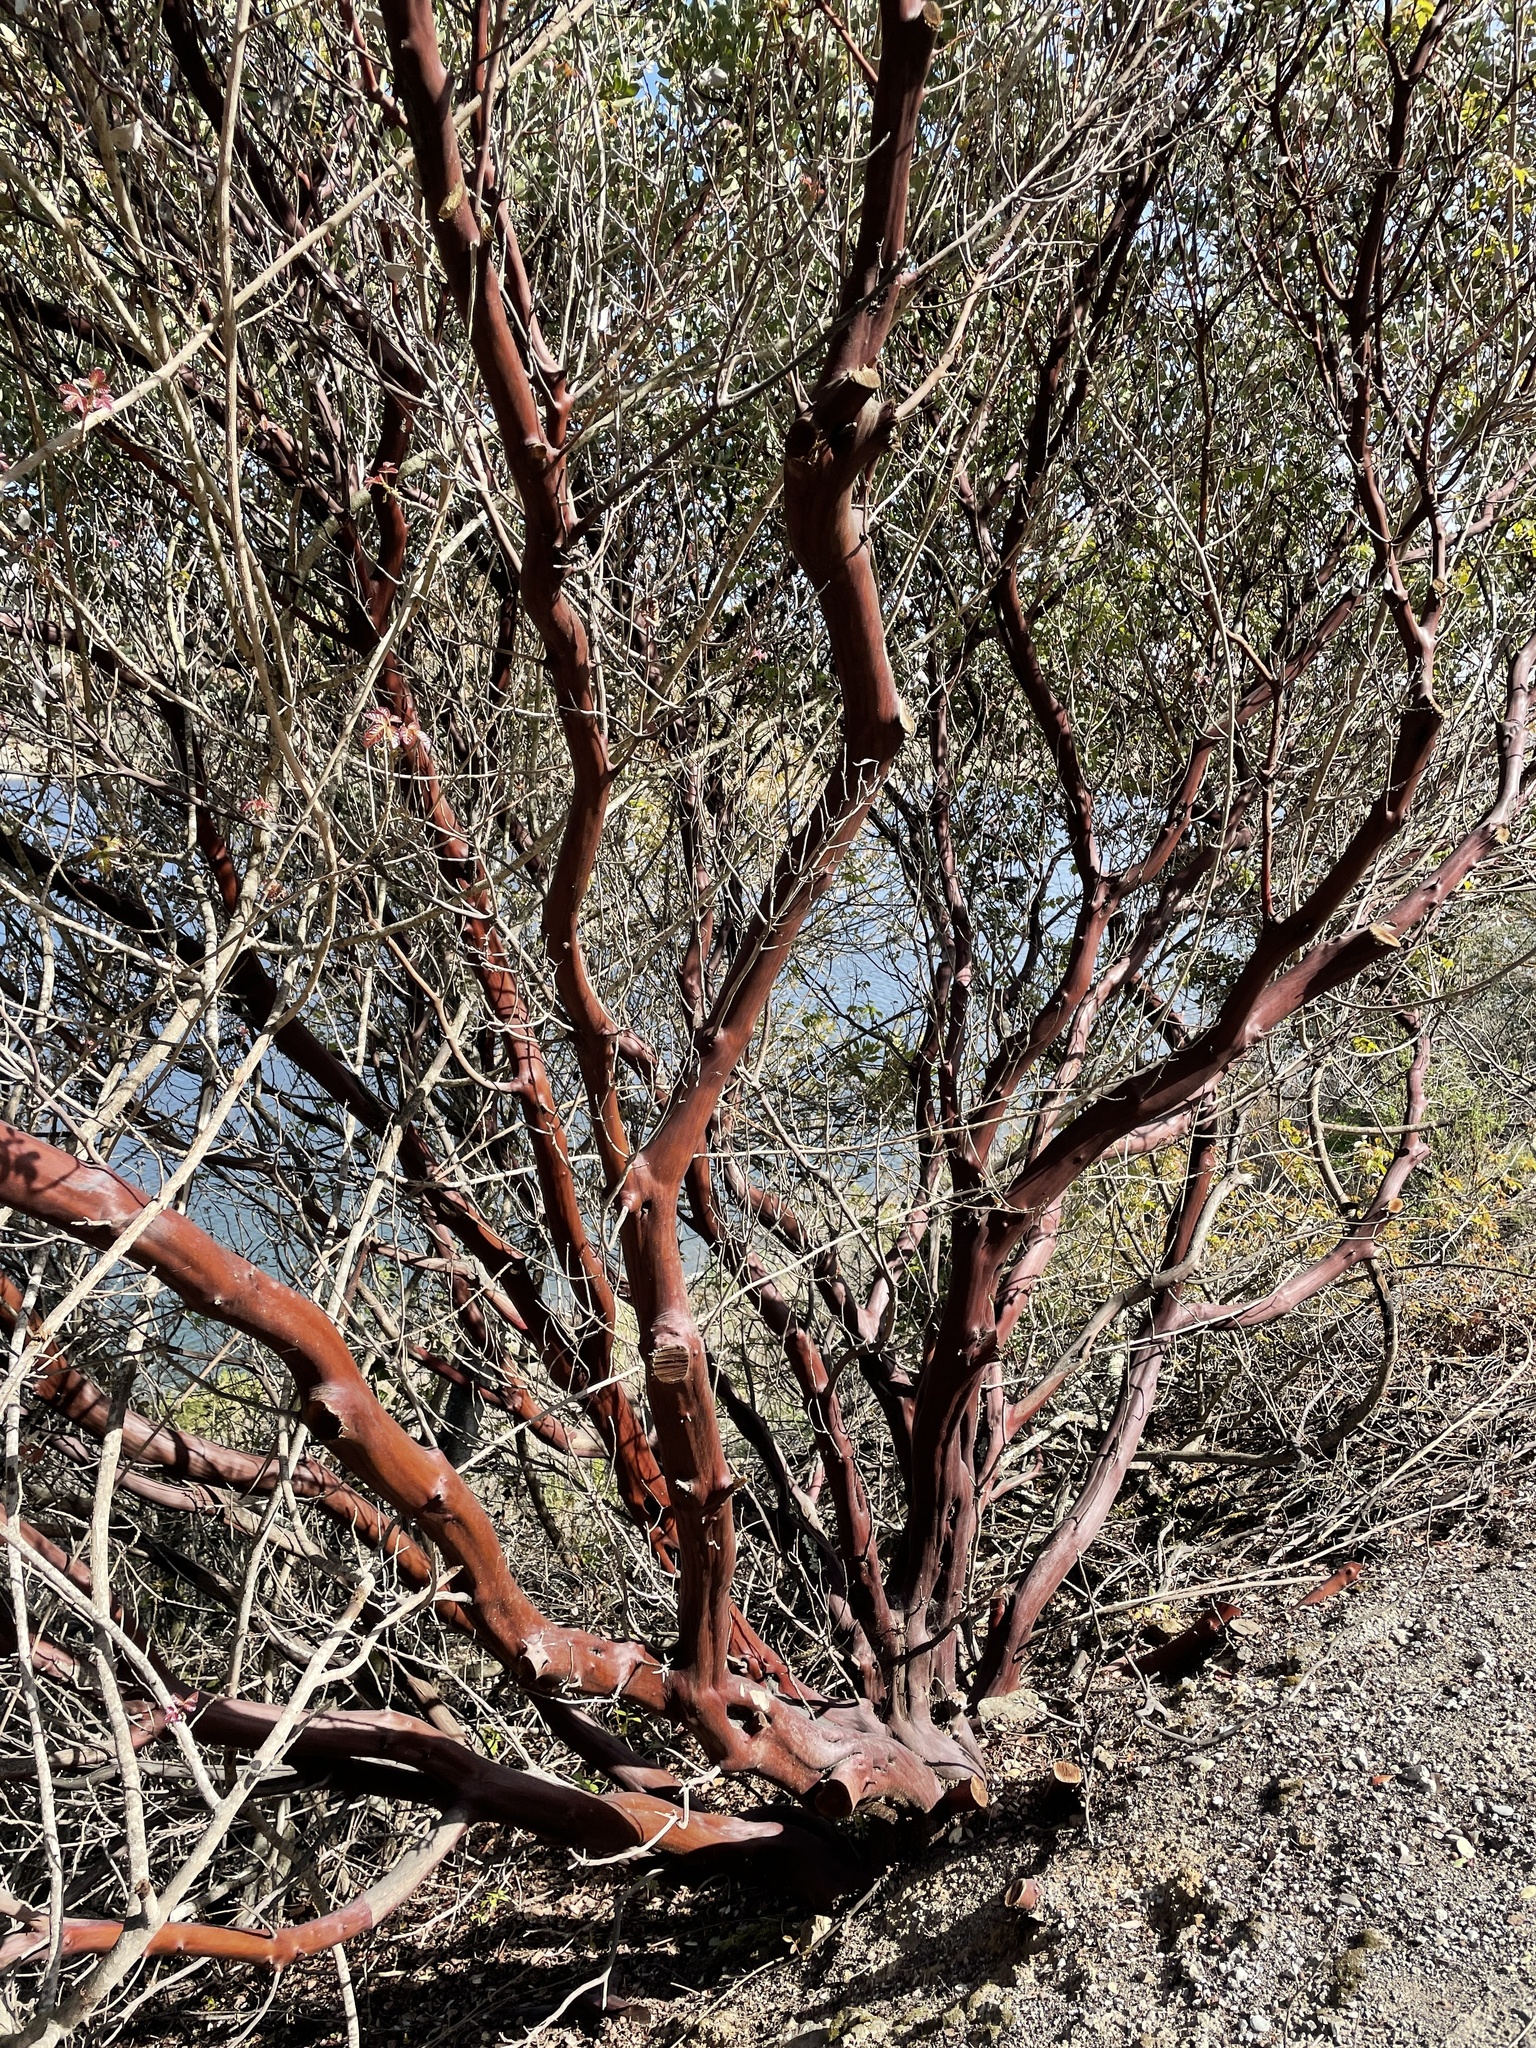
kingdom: Plantae
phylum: Tracheophyta
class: Magnoliopsida
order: Ericales
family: Ericaceae
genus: Arctostaphylos
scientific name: Arctostaphylos glauca
